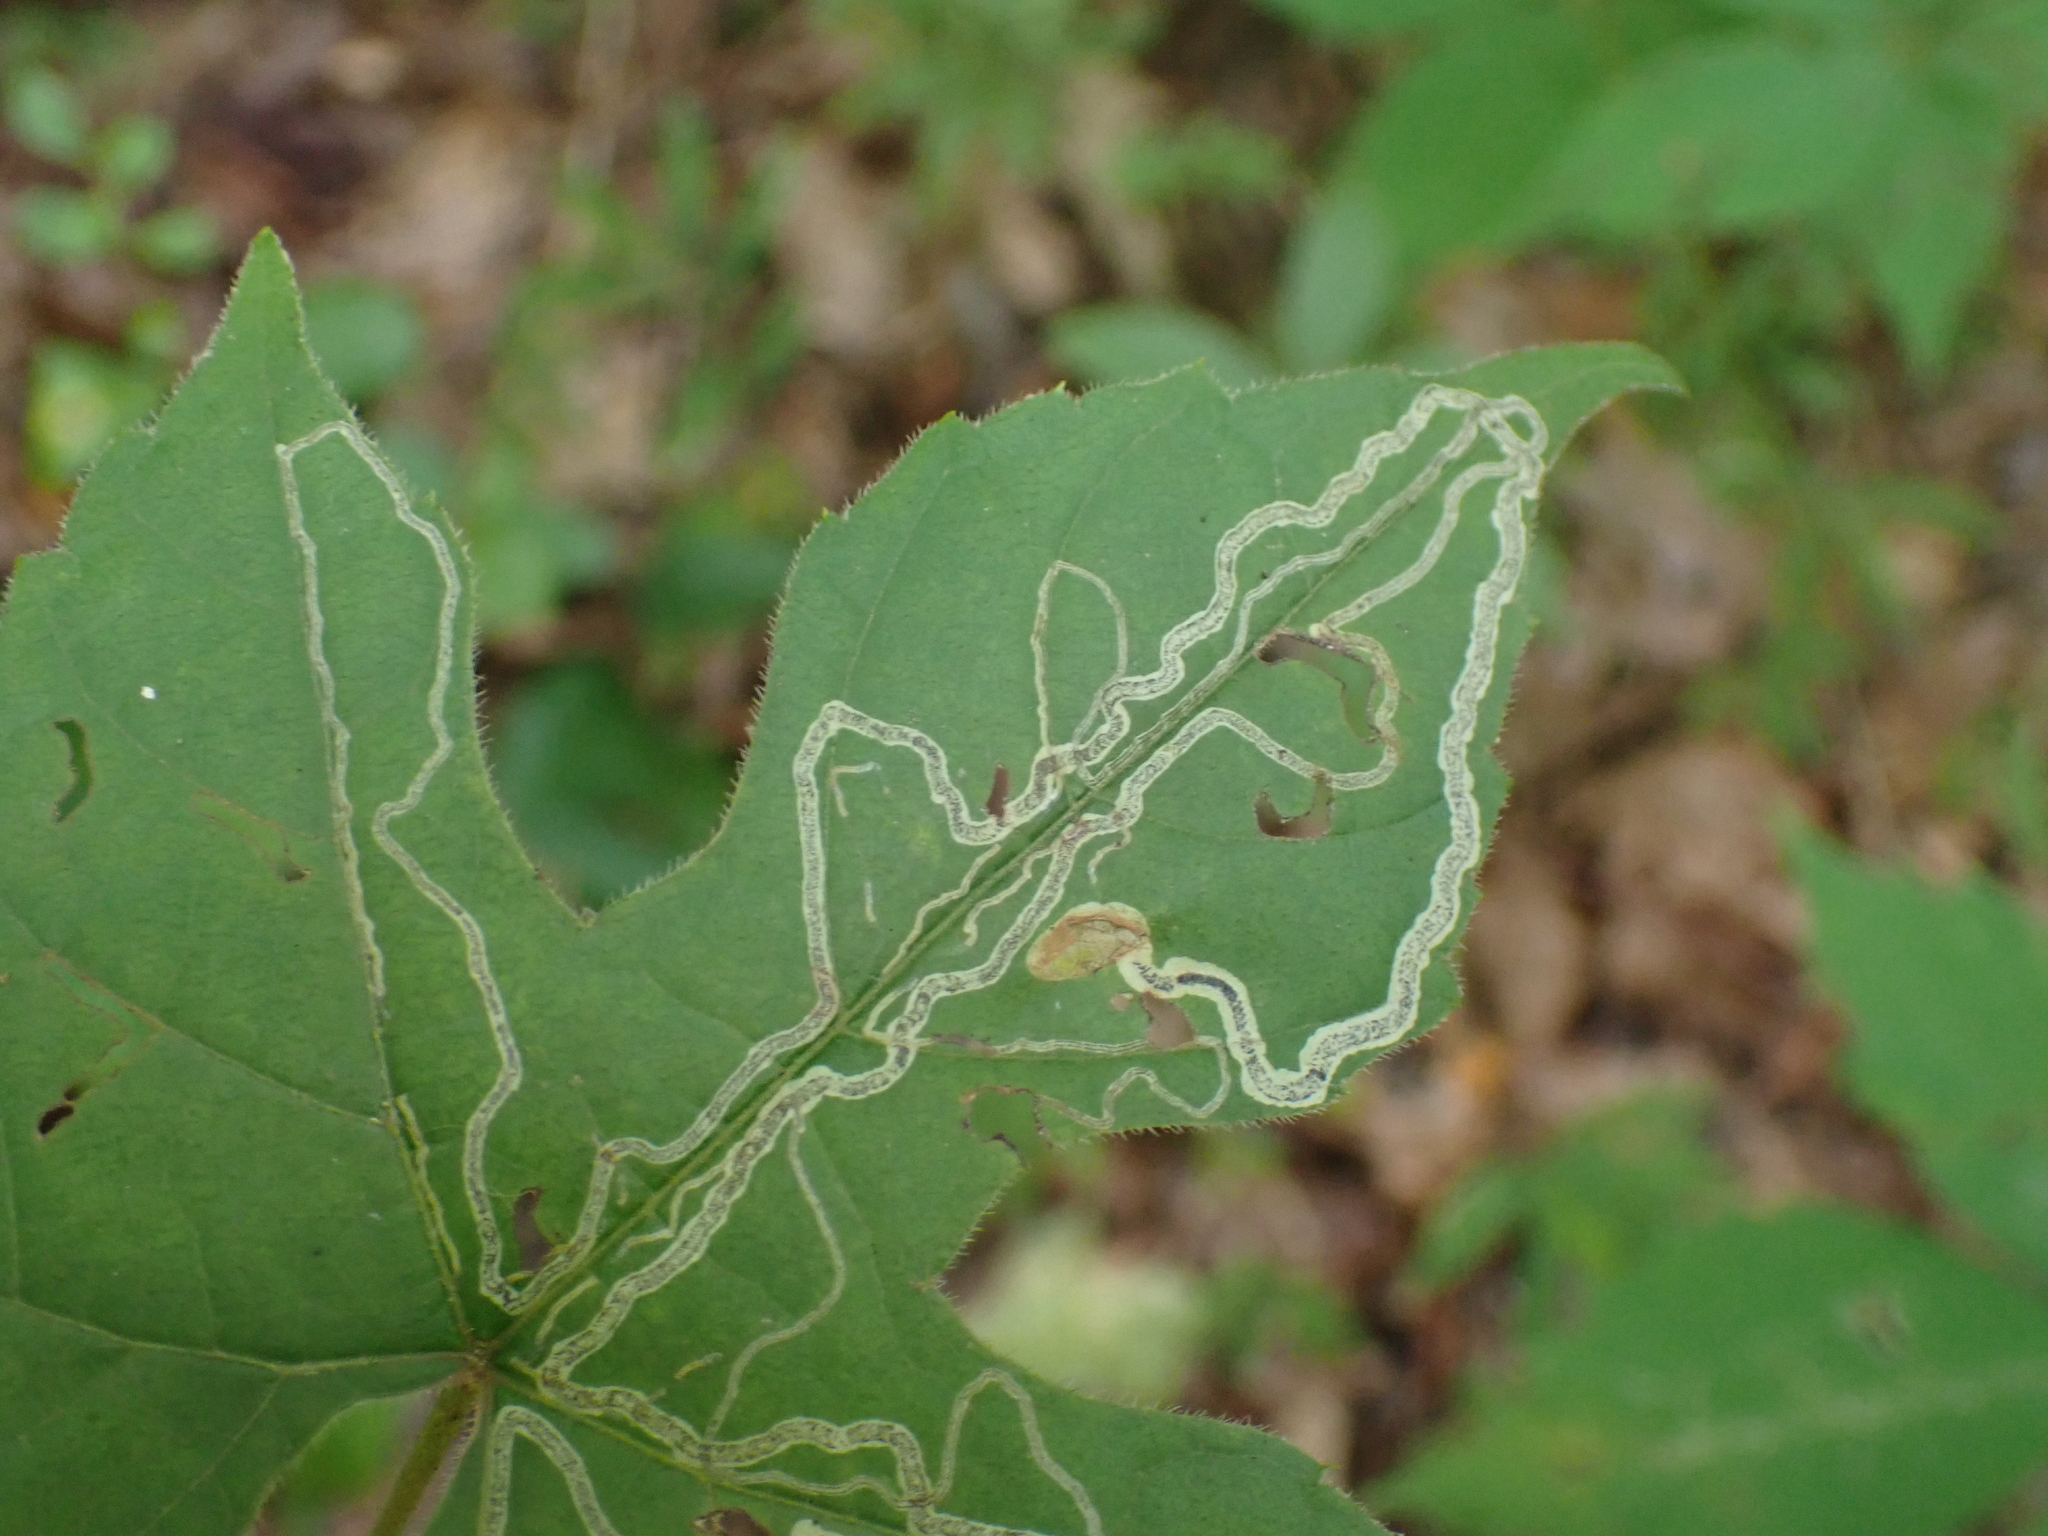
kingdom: Animalia
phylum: Arthropoda
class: Insecta
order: Lepidoptera
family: Gracillariidae
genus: Phyllocnistis
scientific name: Phyllocnistis vitifoliella
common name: Grape leaf-miner moth
